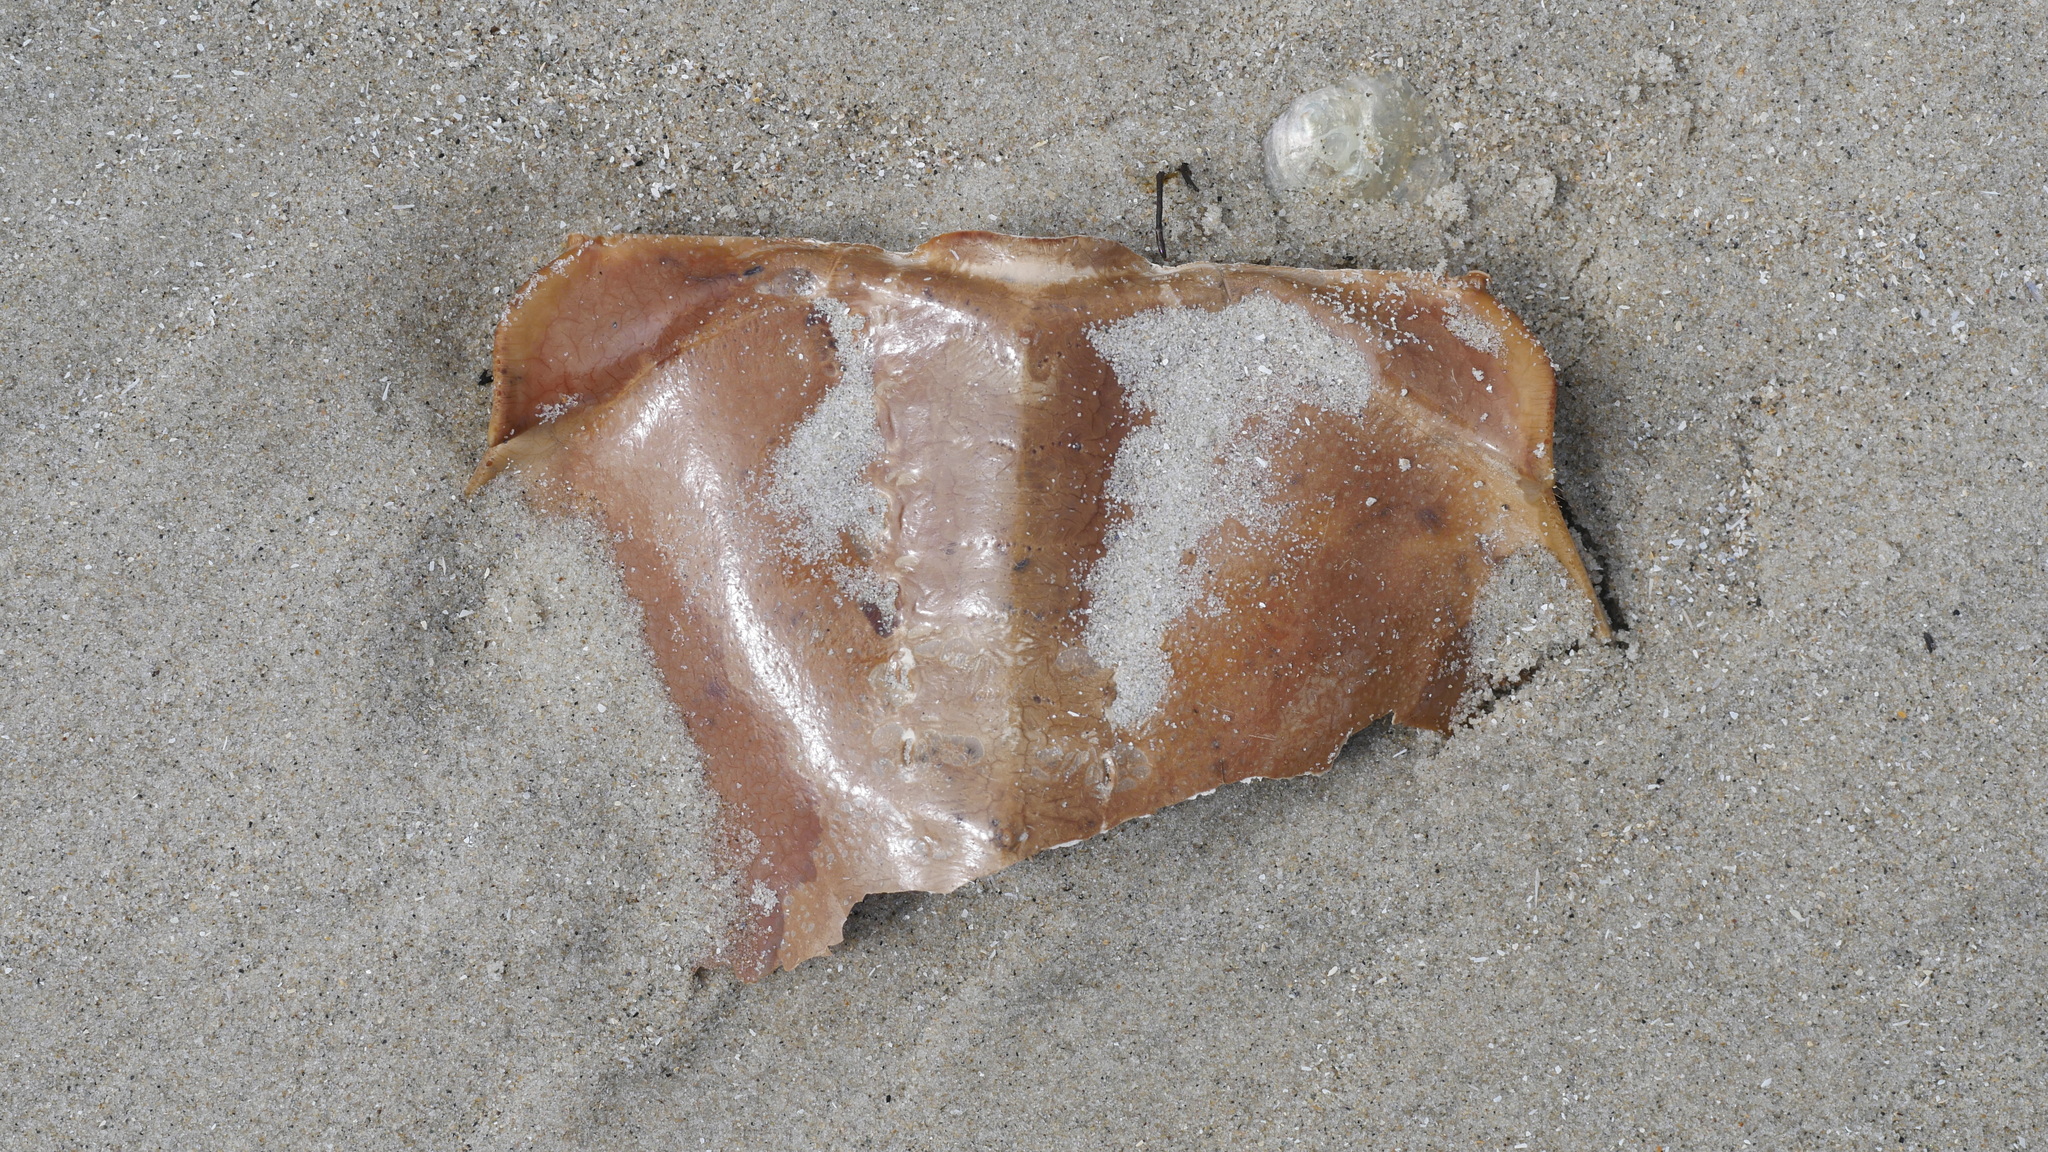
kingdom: Animalia
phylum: Arthropoda
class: Merostomata
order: Xiphosurida
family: Limulidae
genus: Limulus
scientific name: Limulus polyphemus
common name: Horseshoe crab
